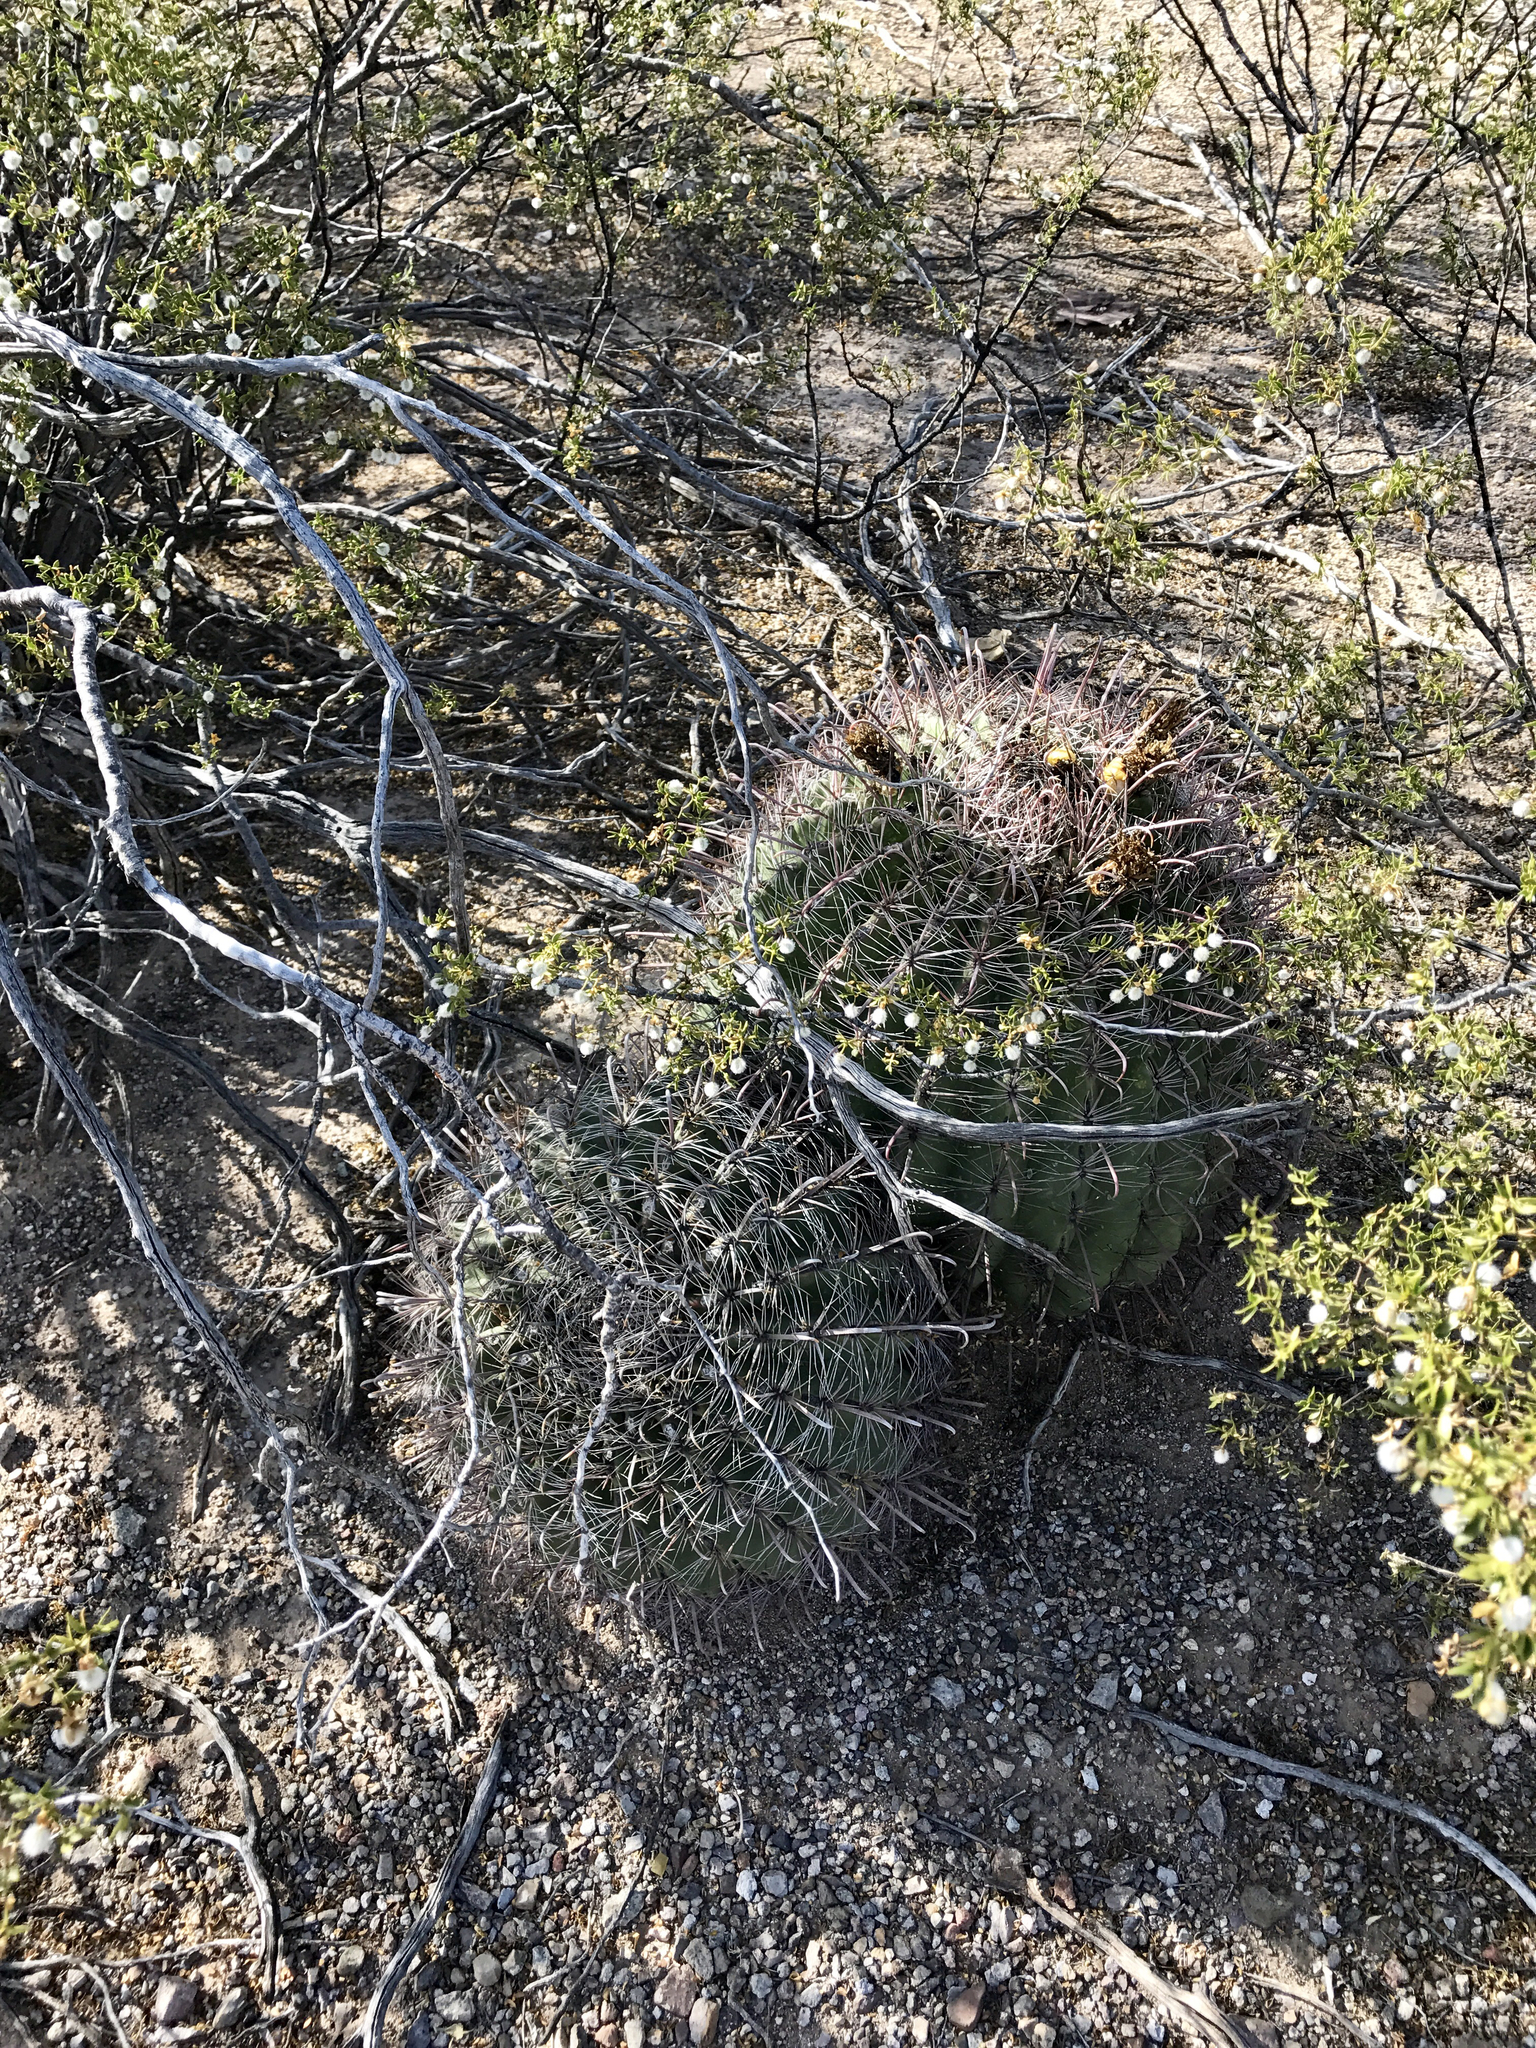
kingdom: Plantae
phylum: Tracheophyta
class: Magnoliopsida
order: Caryophyllales
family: Cactaceae
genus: Ferocactus
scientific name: Ferocactus wislizeni
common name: Candy barrel cactus
